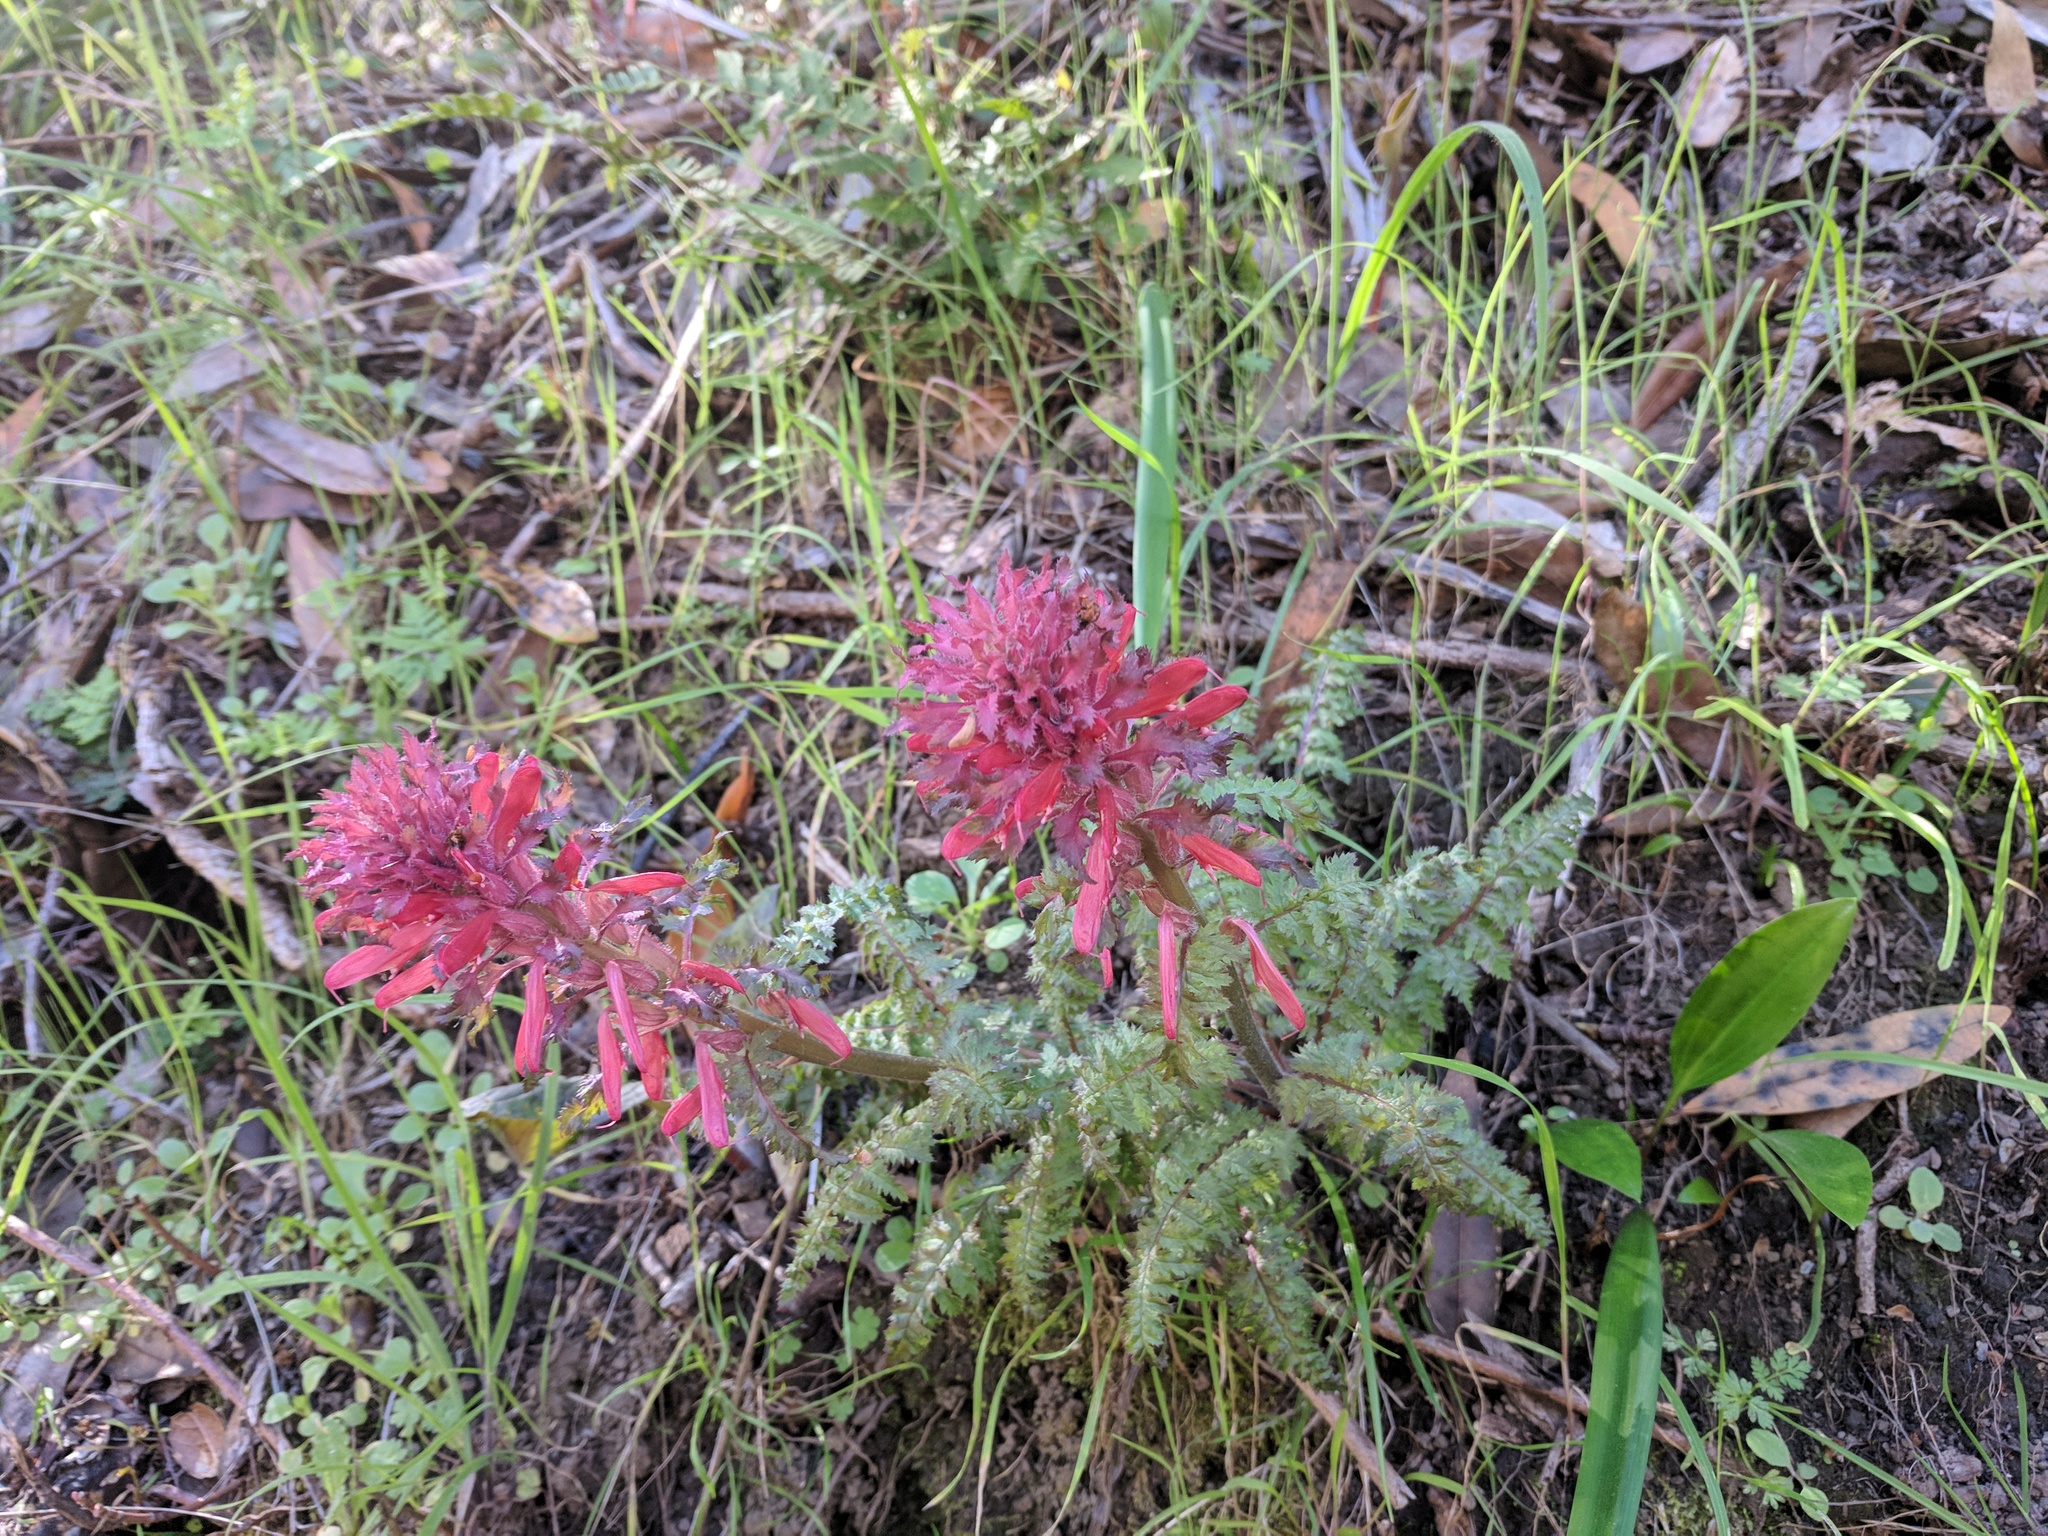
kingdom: Plantae
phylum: Tracheophyta
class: Magnoliopsida
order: Lamiales
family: Orobanchaceae
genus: Pedicularis
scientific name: Pedicularis densiflora
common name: Indian warrior
